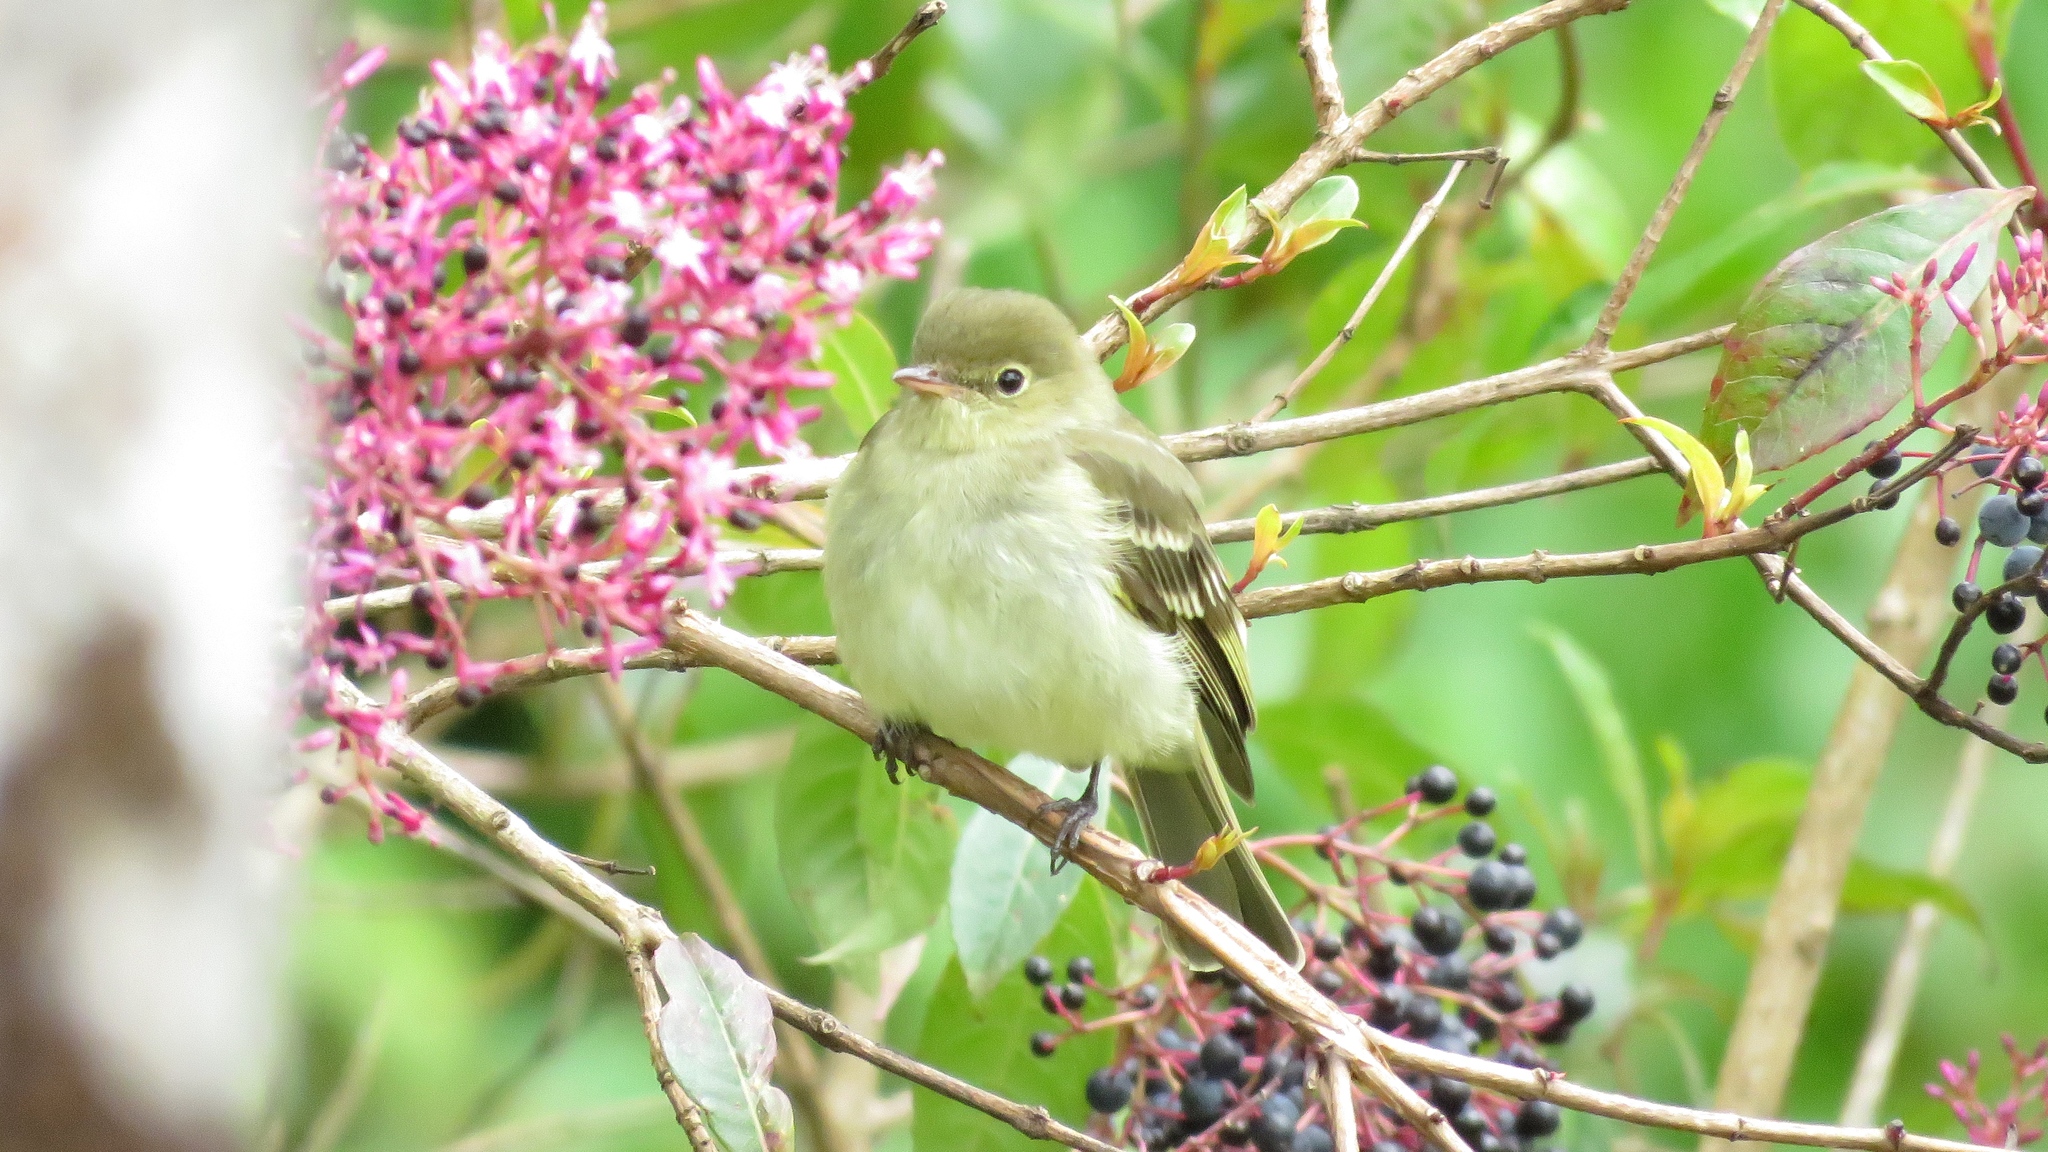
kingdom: Animalia
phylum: Chordata
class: Aves
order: Passeriformes
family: Tyrannidae
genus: Elaenia
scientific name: Elaenia frantzii
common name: Mountain elaenia
